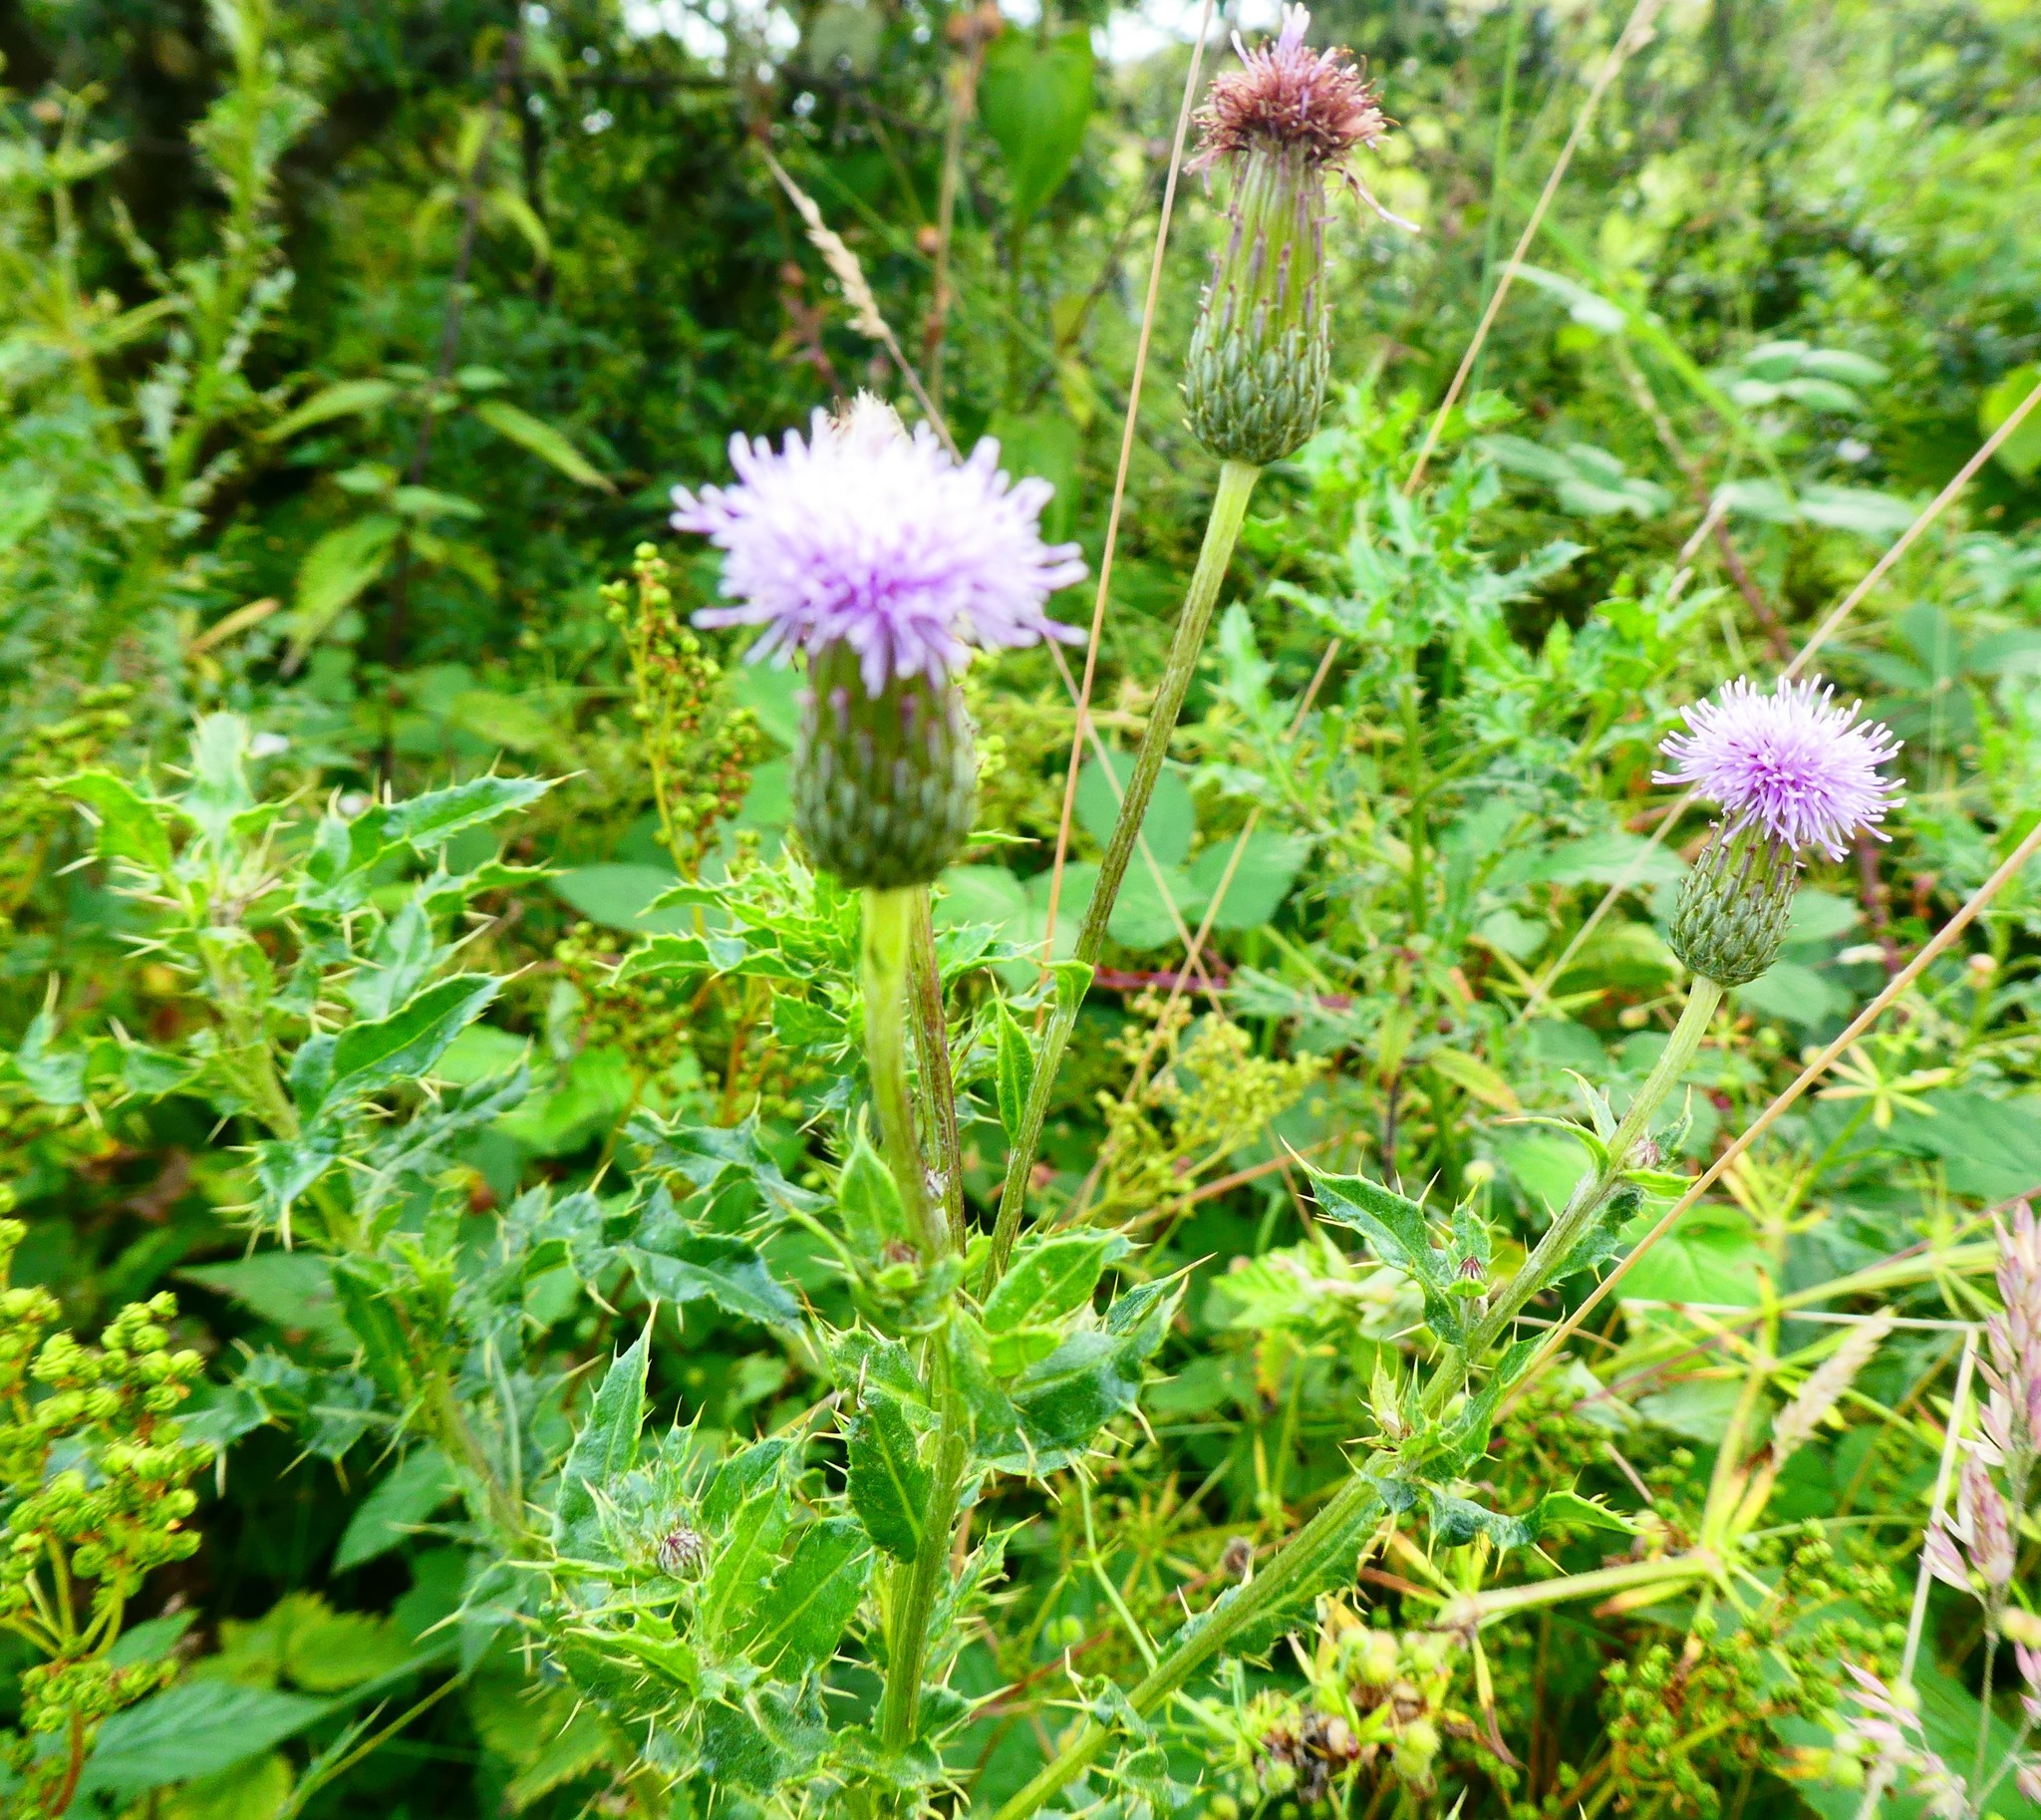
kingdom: Plantae
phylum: Tracheophyta
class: Magnoliopsida
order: Asterales
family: Asteraceae
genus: Cirsium
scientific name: Cirsium arvense
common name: Creeping thistle
